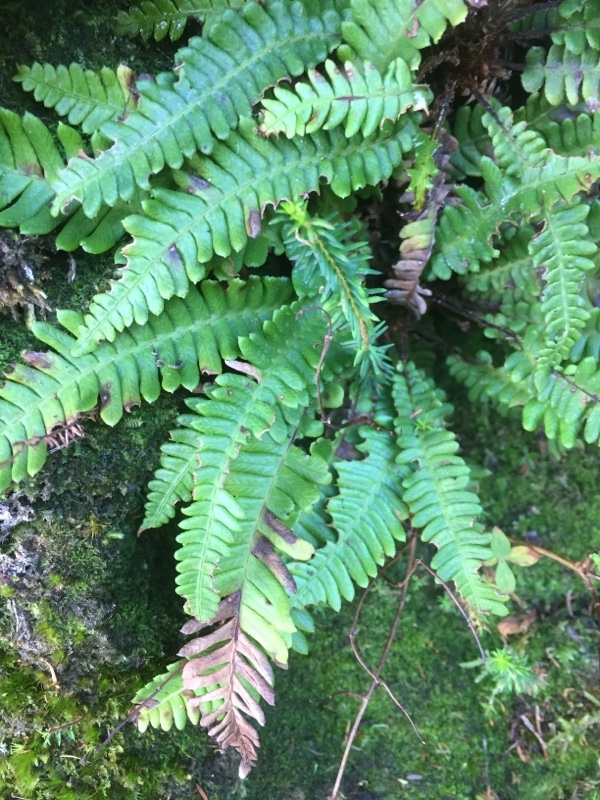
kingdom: Plantae
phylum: Tracheophyta
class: Polypodiopsida
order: Polypodiales
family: Blechnaceae
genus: Struthiopteris
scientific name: Struthiopteris spicant
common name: Deer fern
